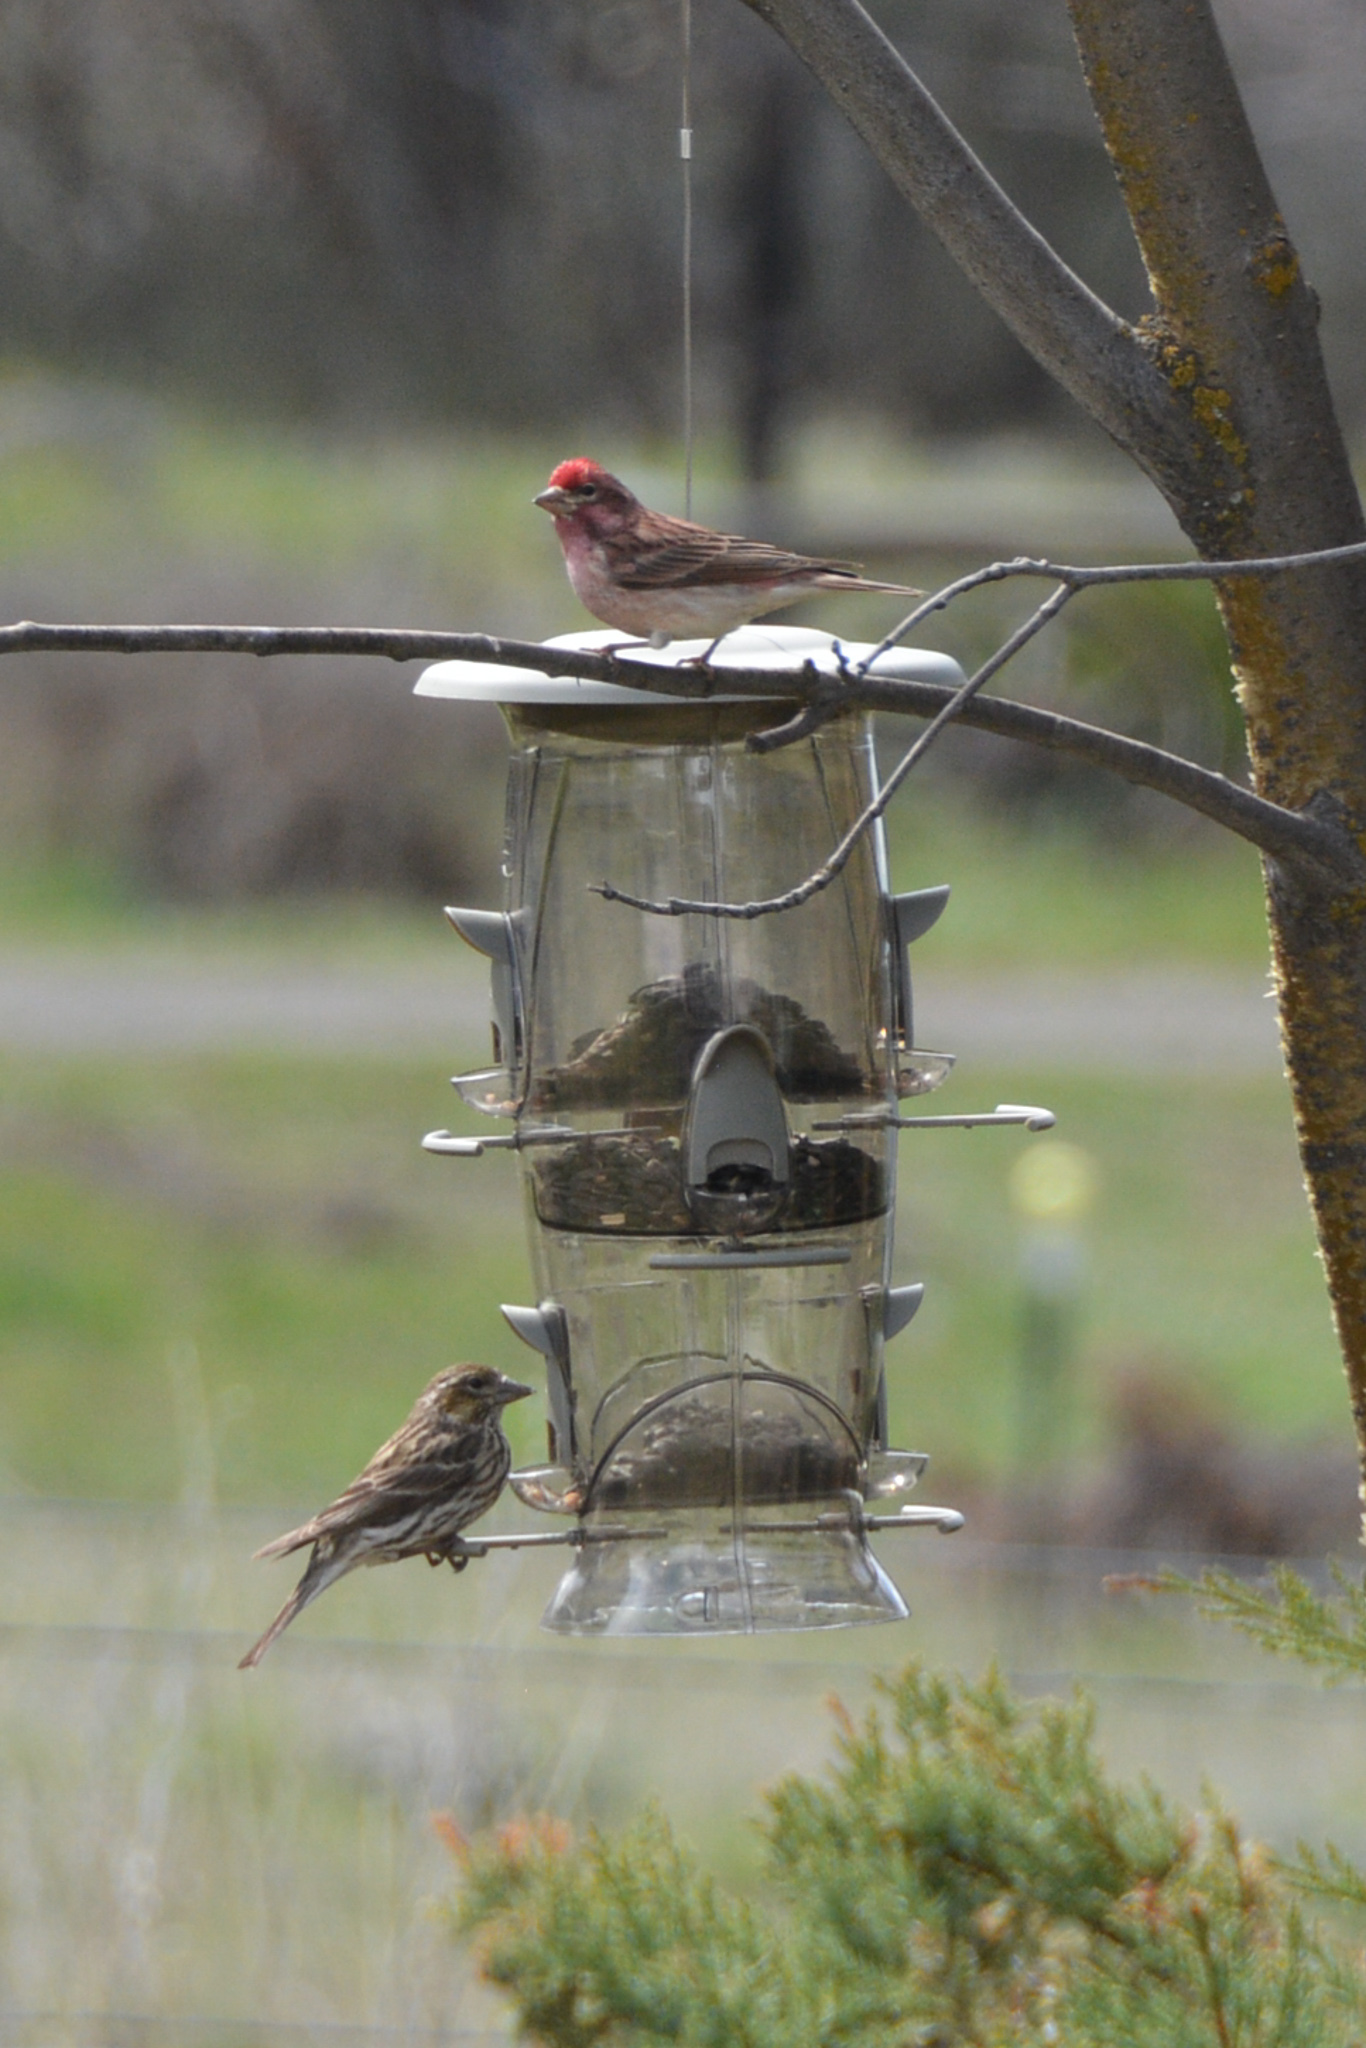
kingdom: Animalia
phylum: Chordata
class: Aves
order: Passeriformes
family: Fringillidae
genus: Haemorhous
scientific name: Haemorhous cassinii
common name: Cassin's finch
